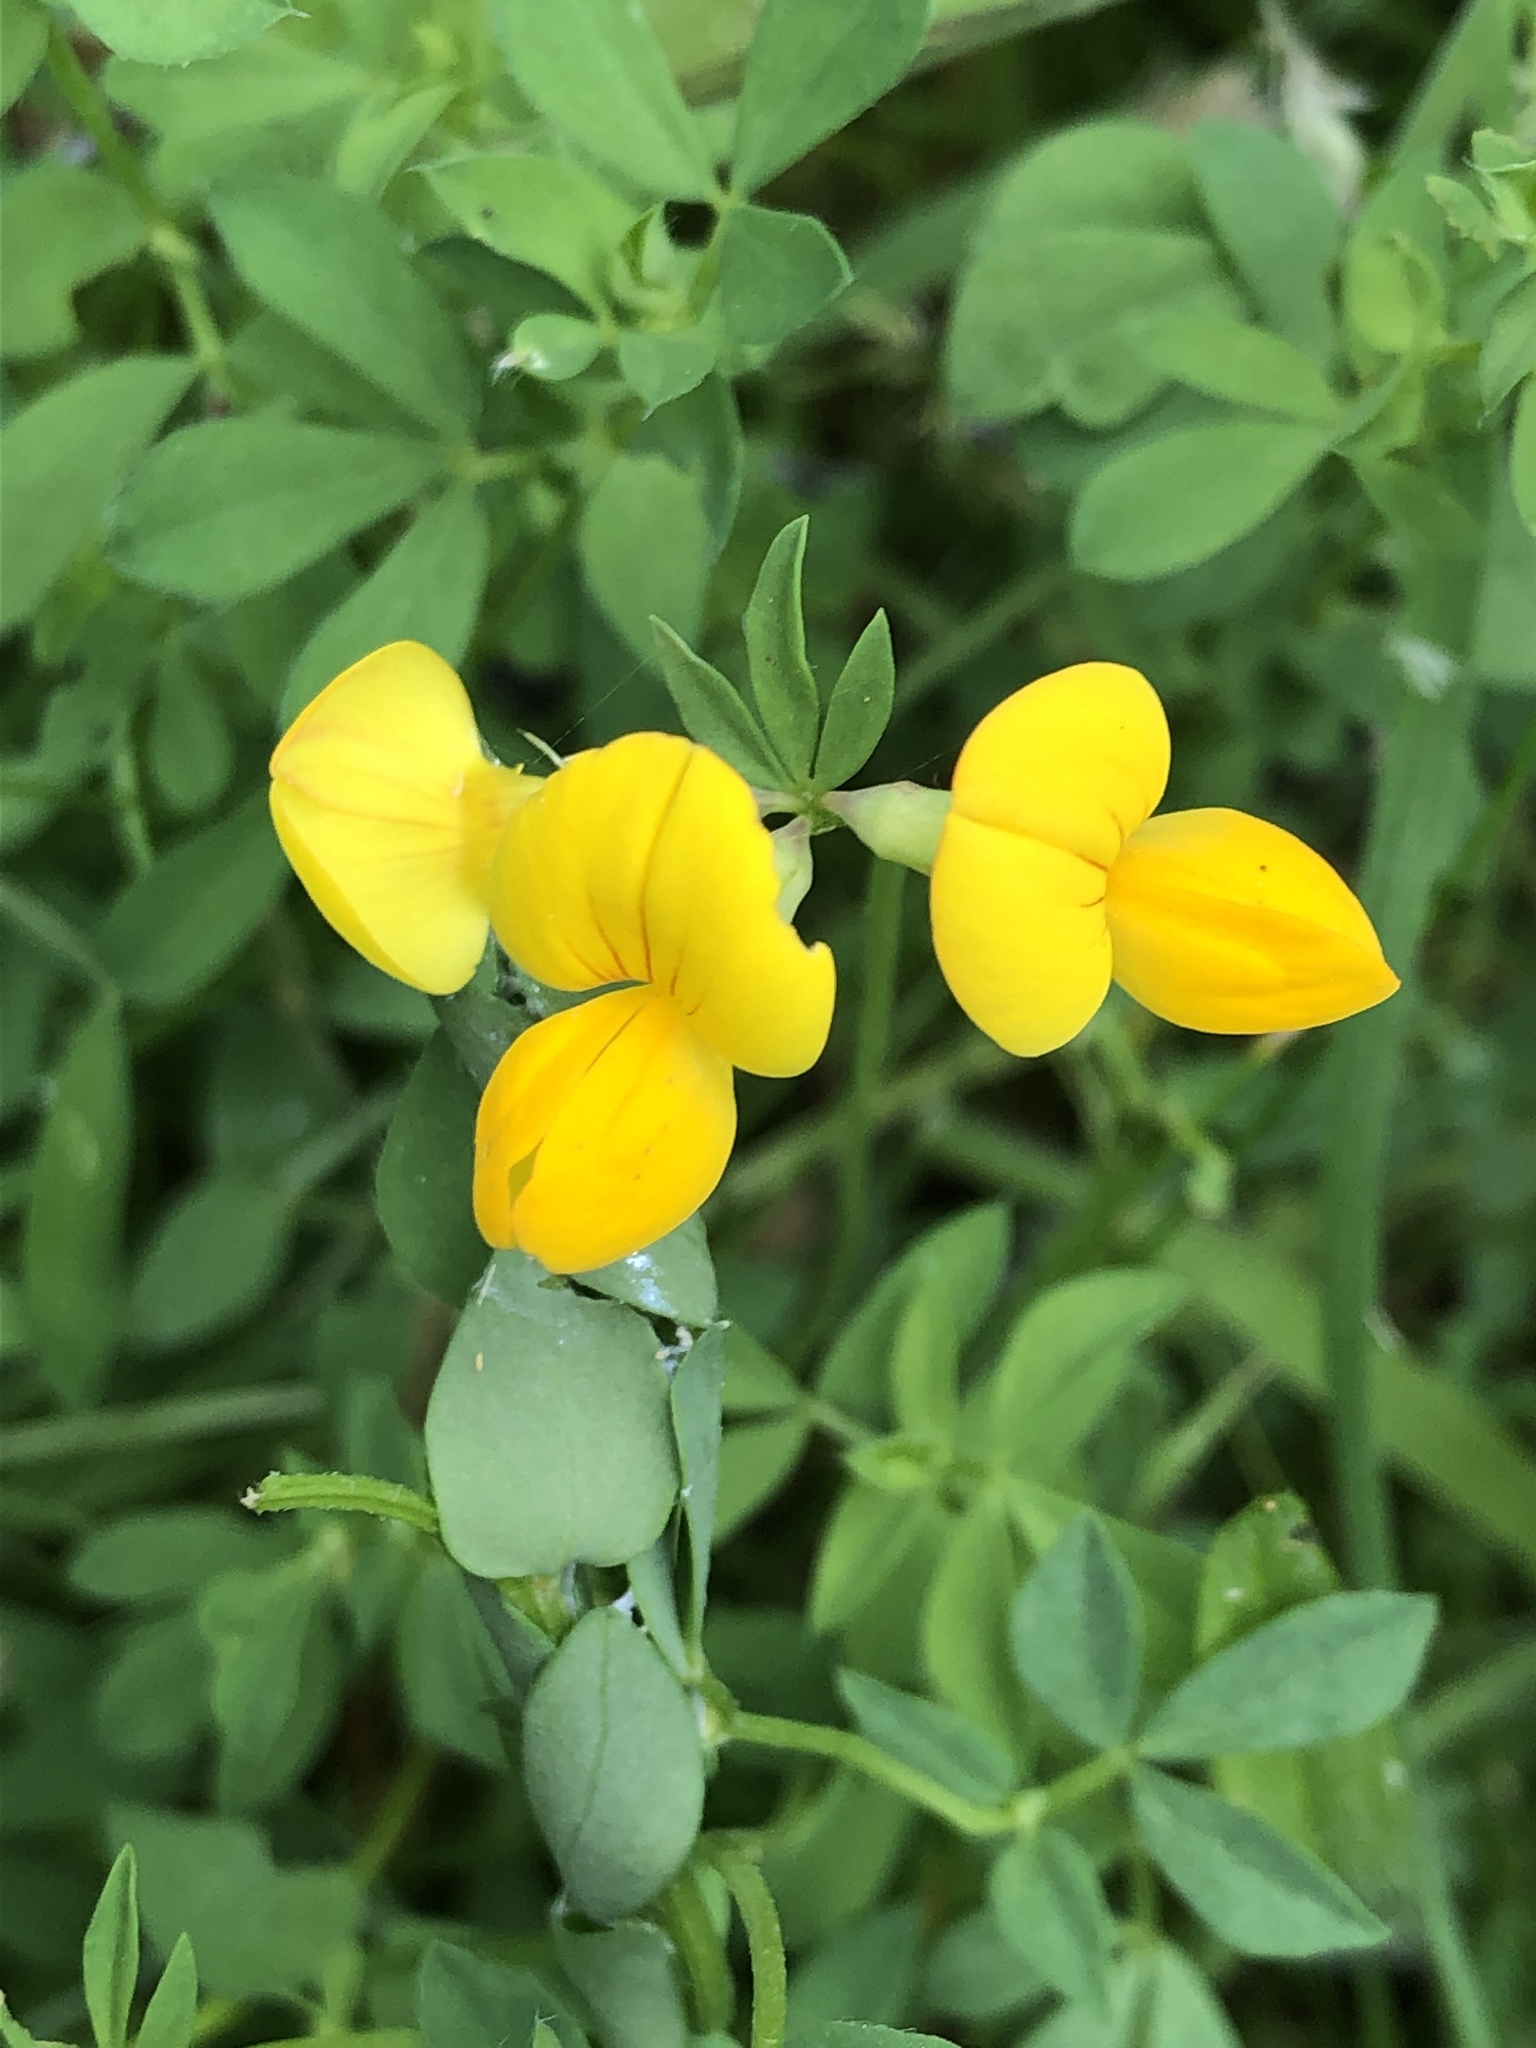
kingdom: Plantae
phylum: Tracheophyta
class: Magnoliopsida
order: Fabales
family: Fabaceae
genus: Lotus
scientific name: Lotus corniculatus
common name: Common bird's-foot-trefoil
